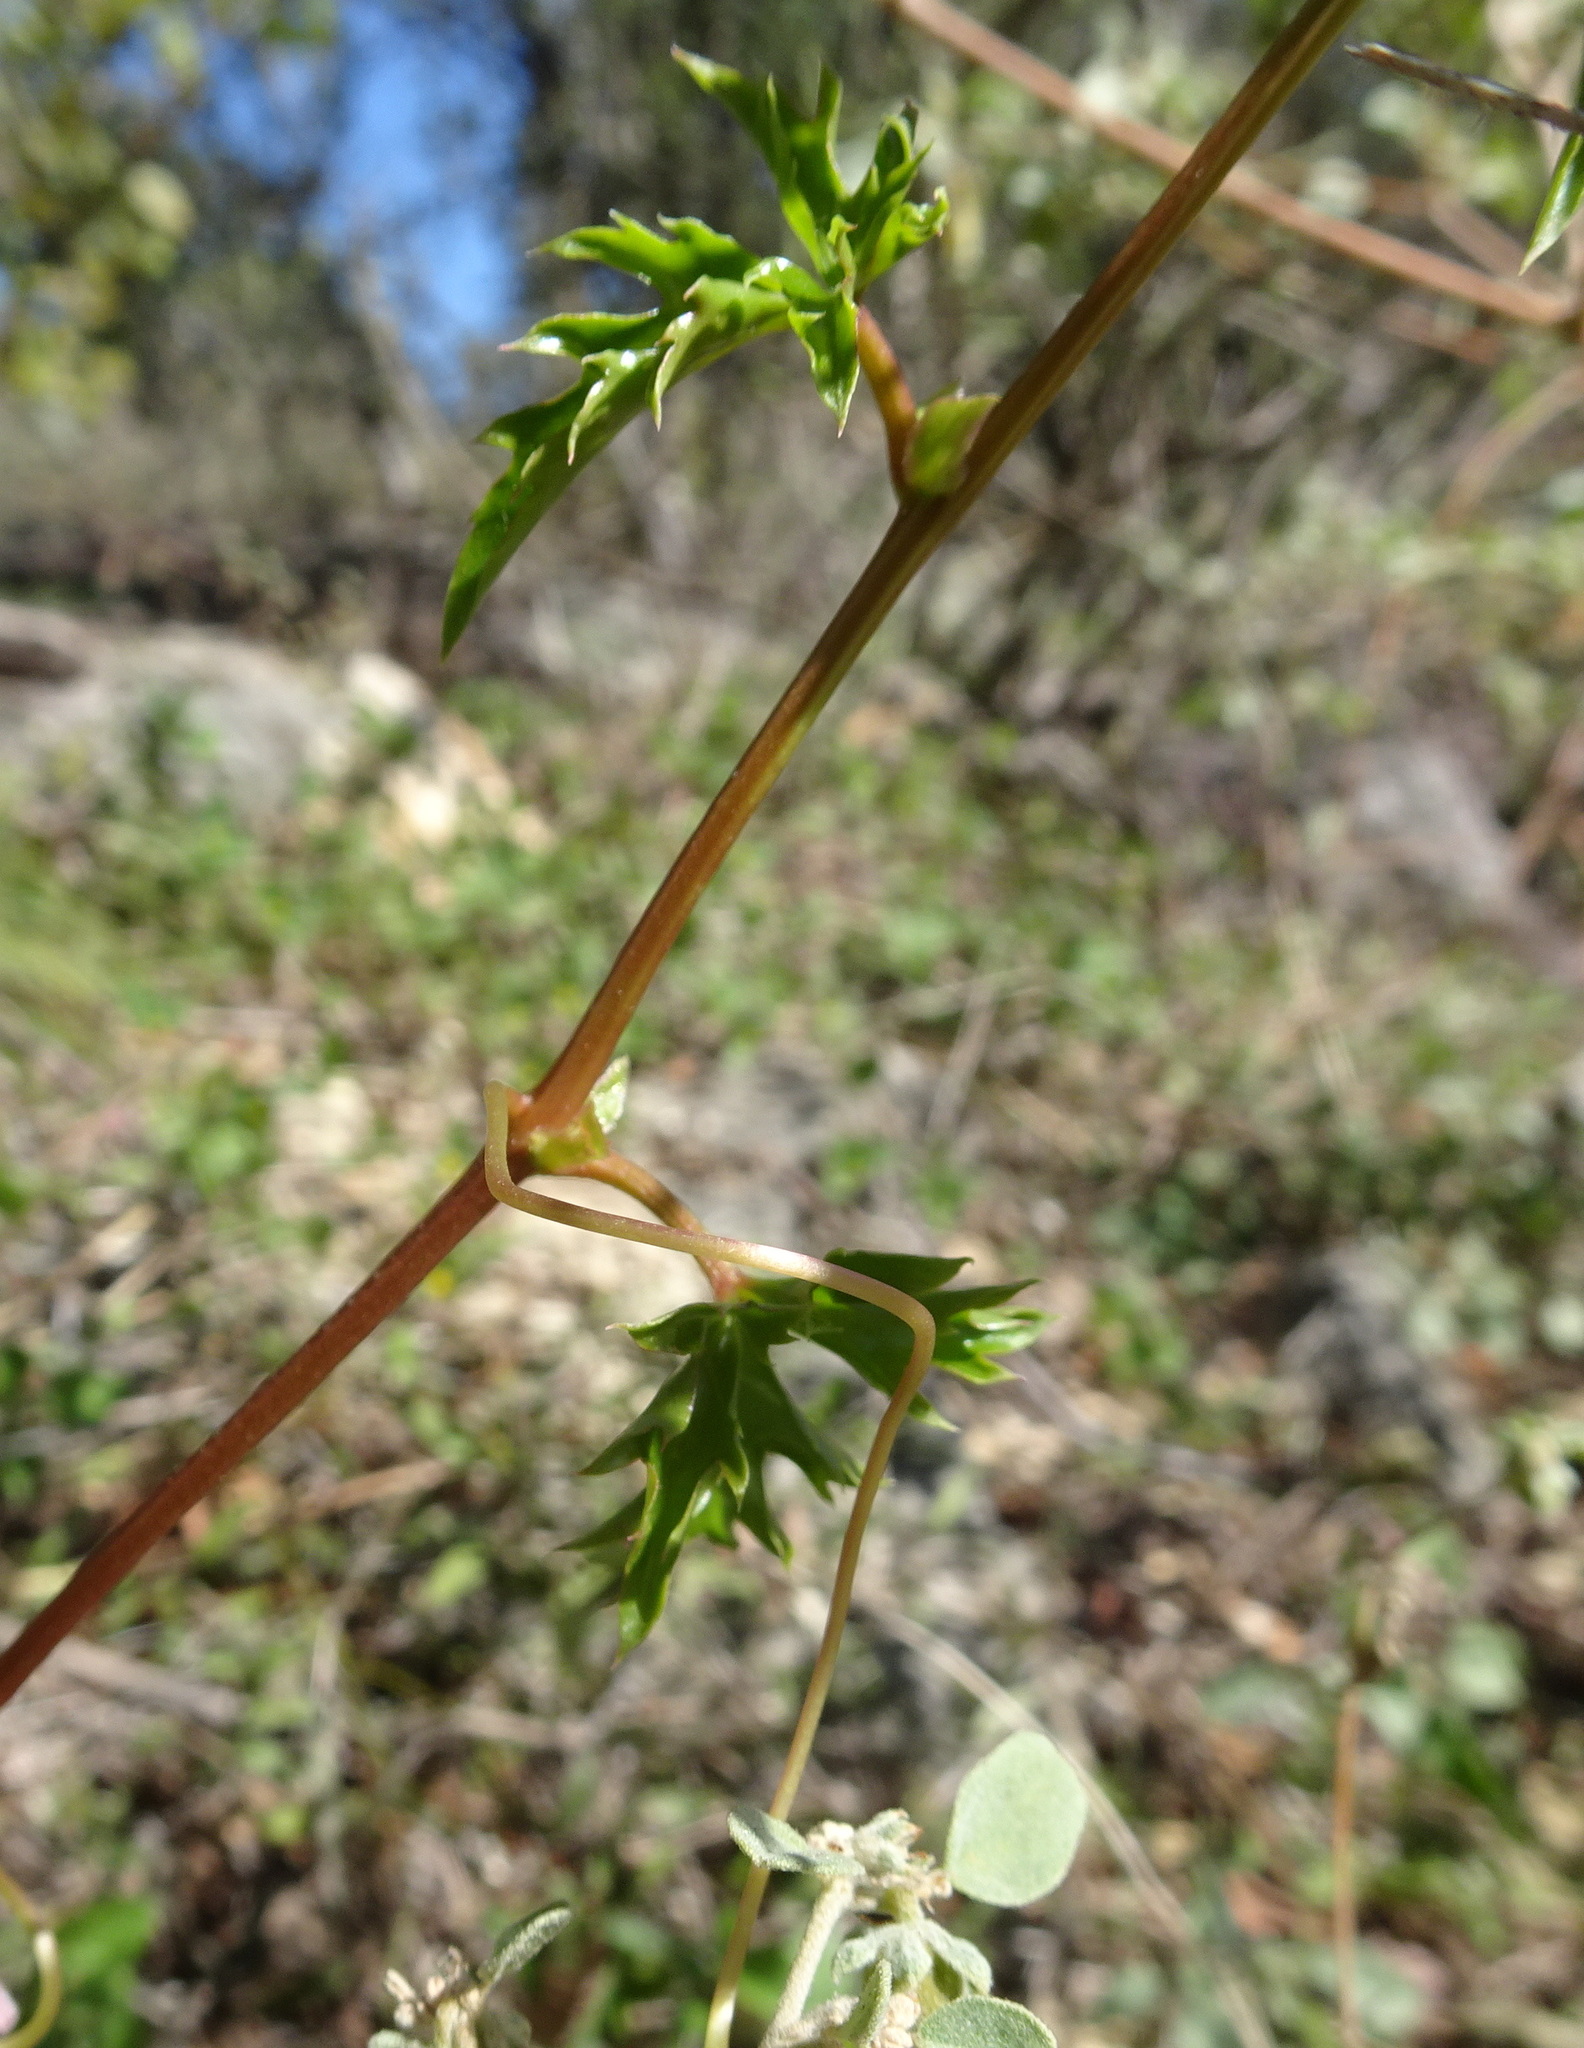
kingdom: Plantae
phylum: Tracheophyta
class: Magnoliopsida
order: Vitales
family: Vitaceae
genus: Cissus
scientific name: Cissus trifoliata
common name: Vine-sorrel
